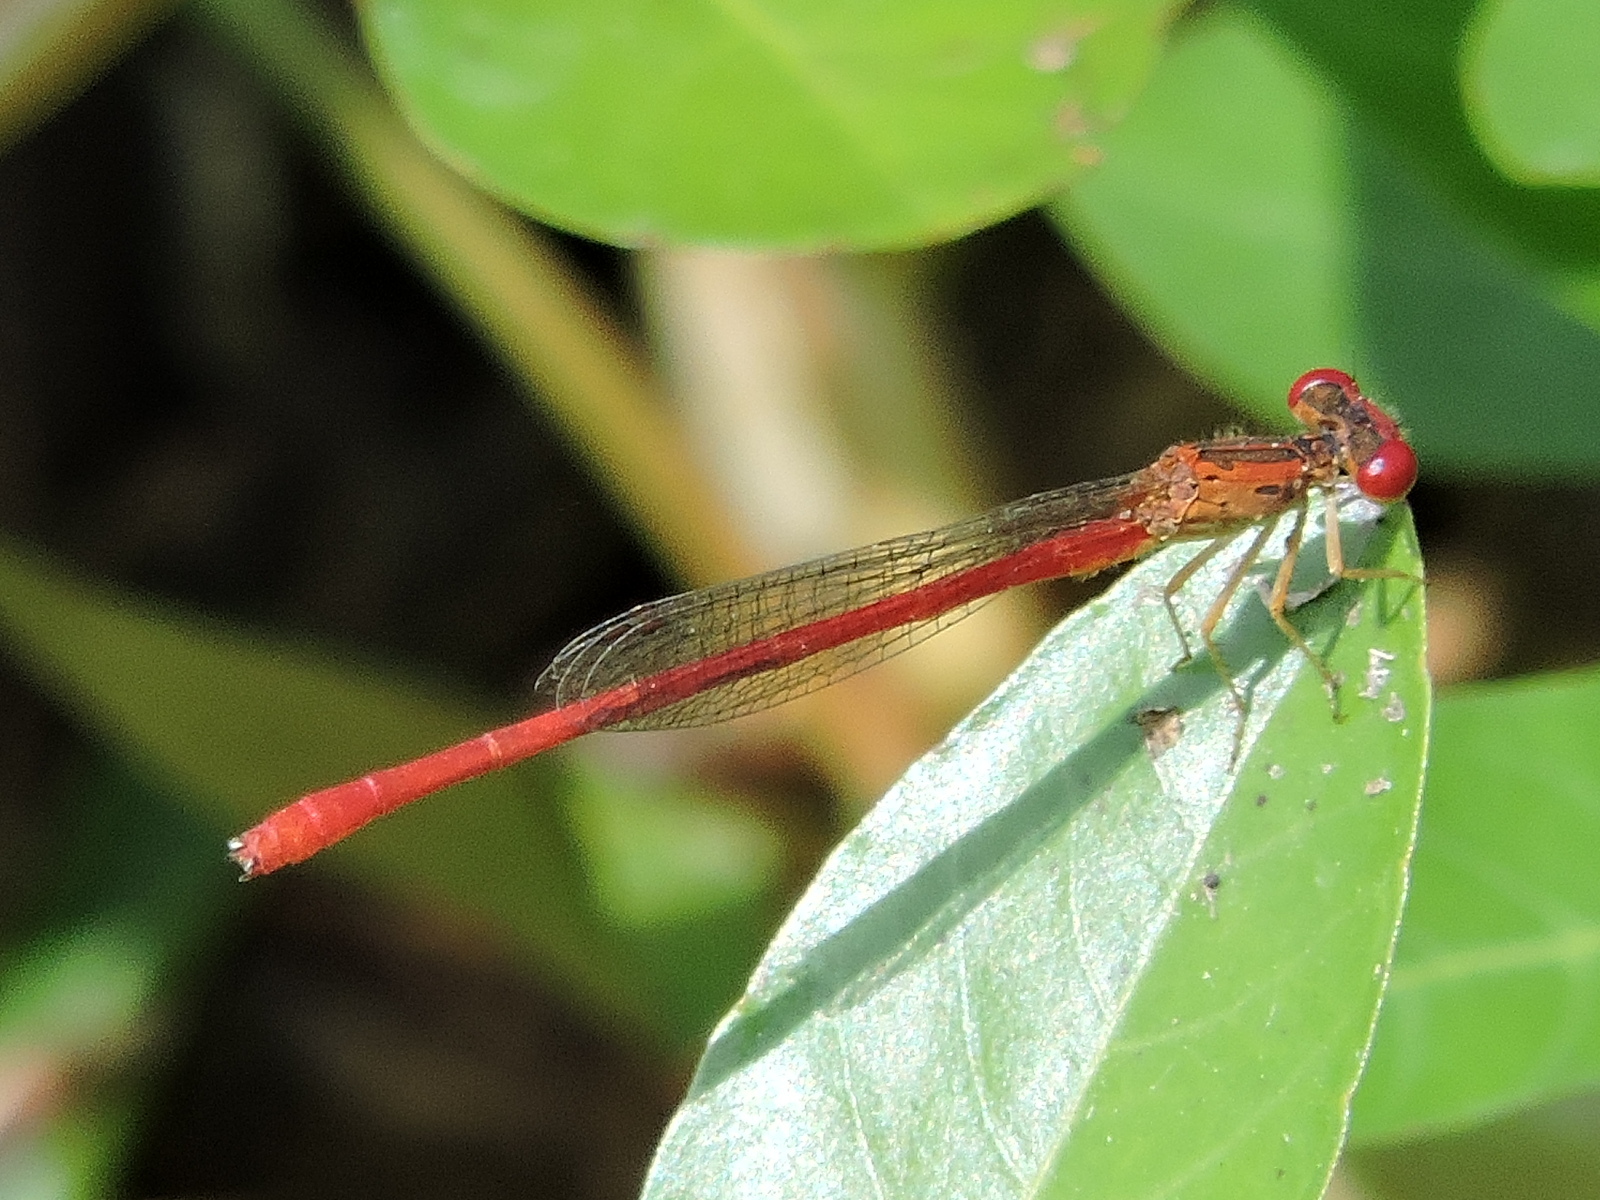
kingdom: Animalia
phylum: Arthropoda
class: Insecta
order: Odonata
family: Coenagrionidae
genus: Telebasis
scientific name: Telebasis salva
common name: Desert firetail
